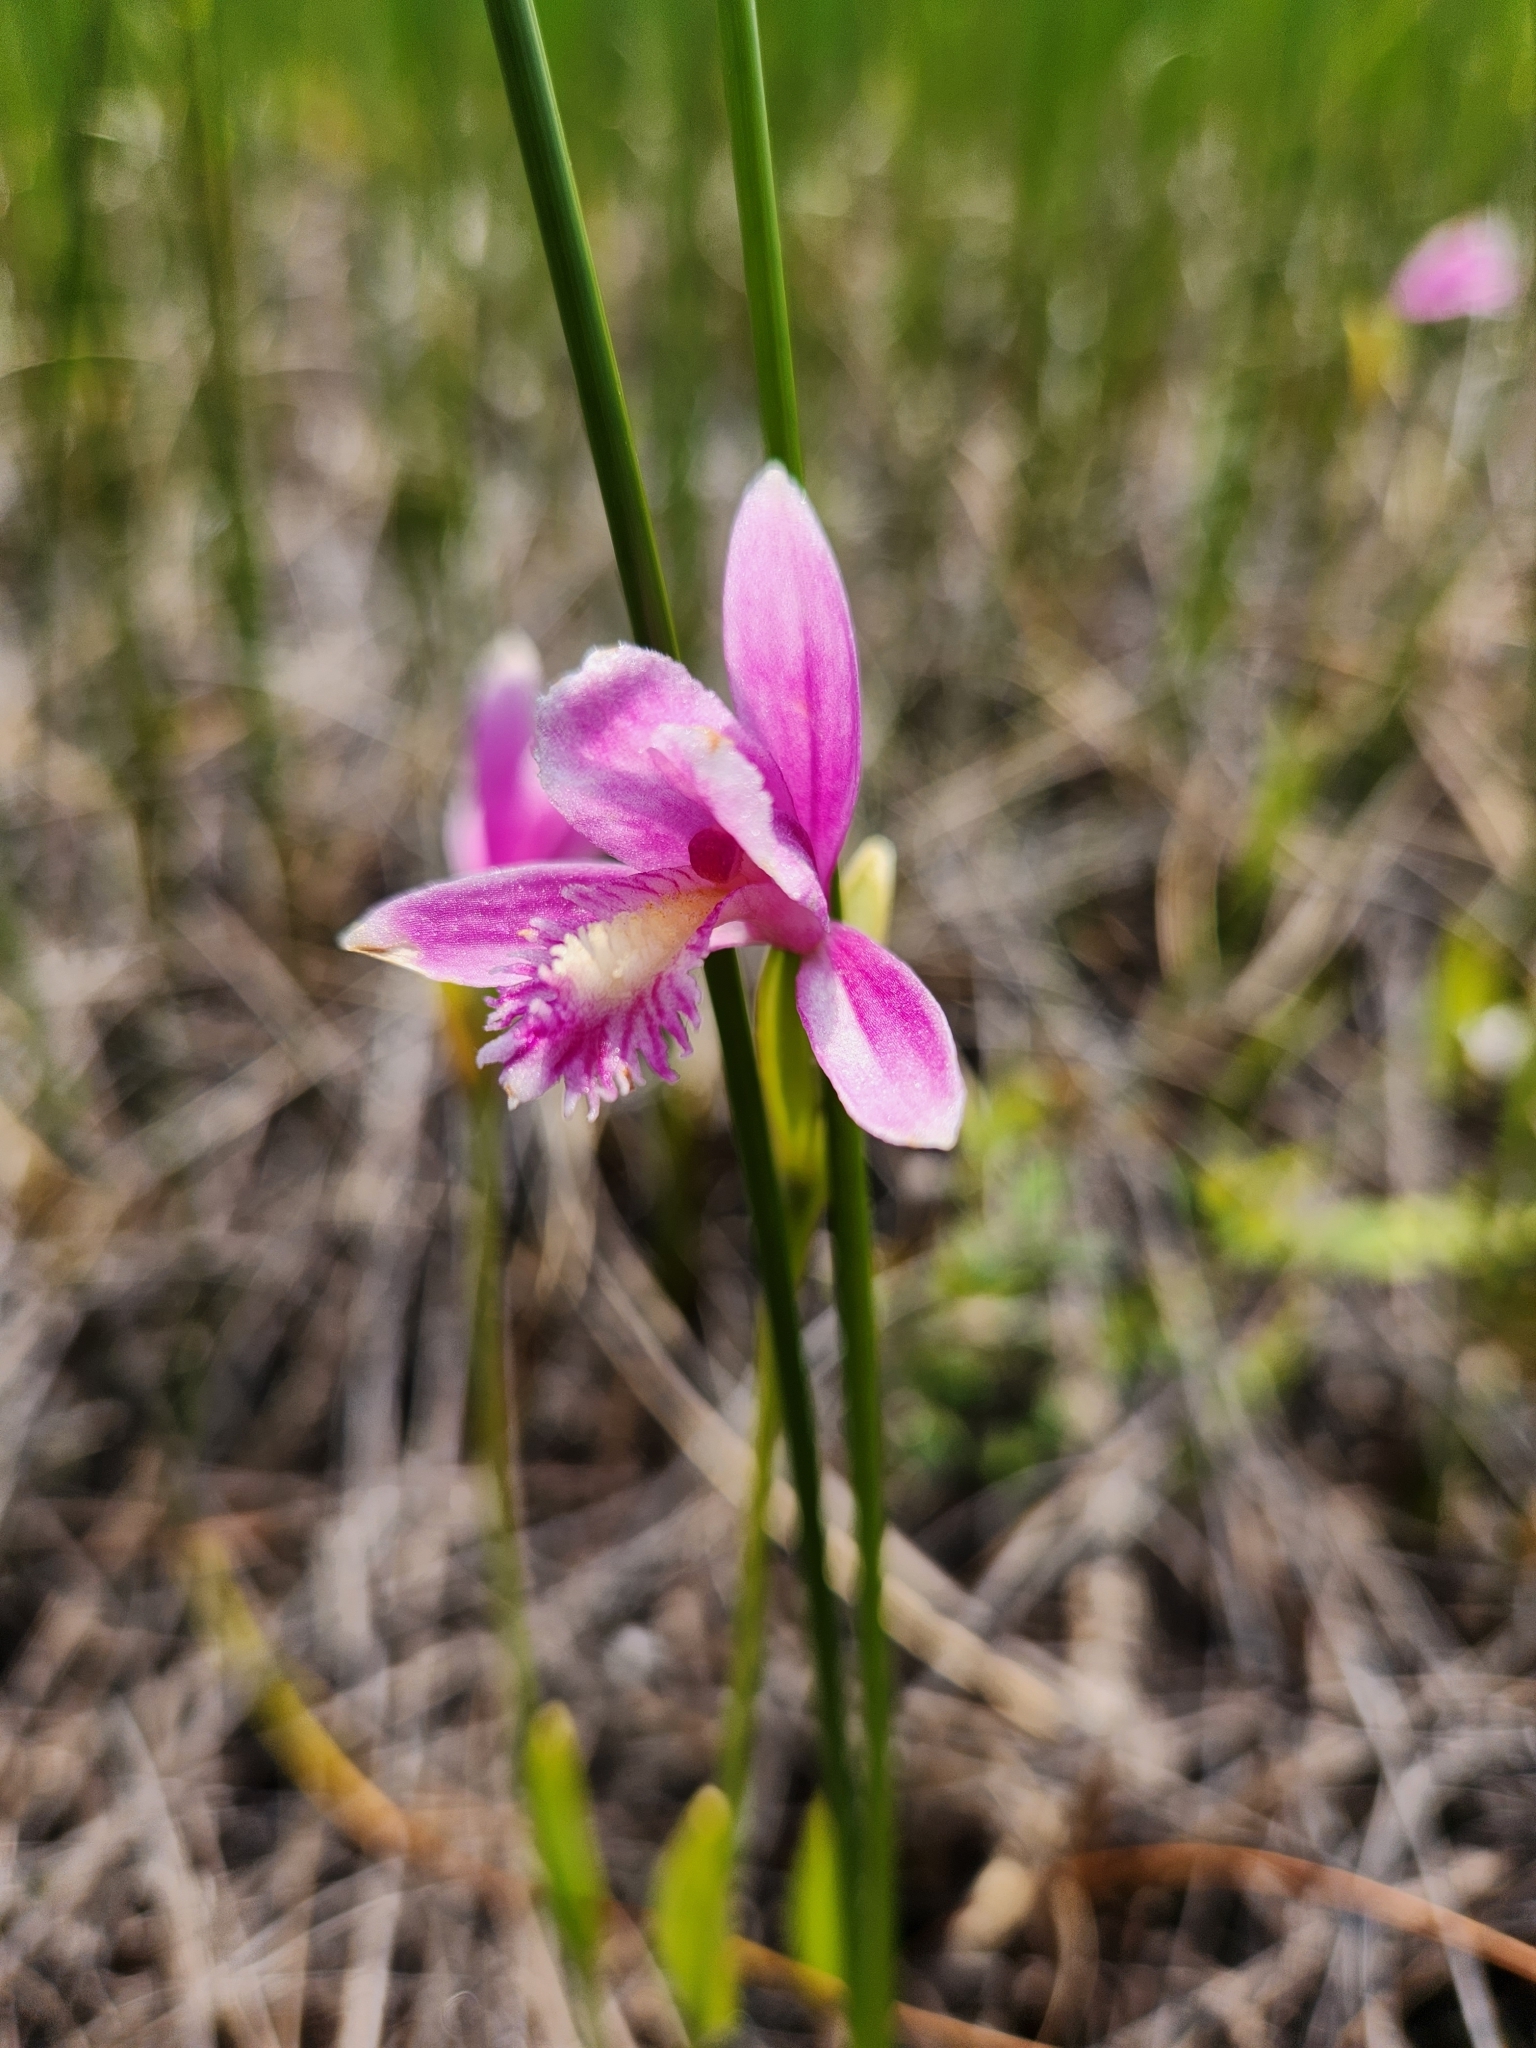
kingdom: Plantae
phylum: Tracheophyta
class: Liliopsida
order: Asparagales
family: Orchidaceae
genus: Pogonia
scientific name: Pogonia ophioglossoides
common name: Rose pogonia
